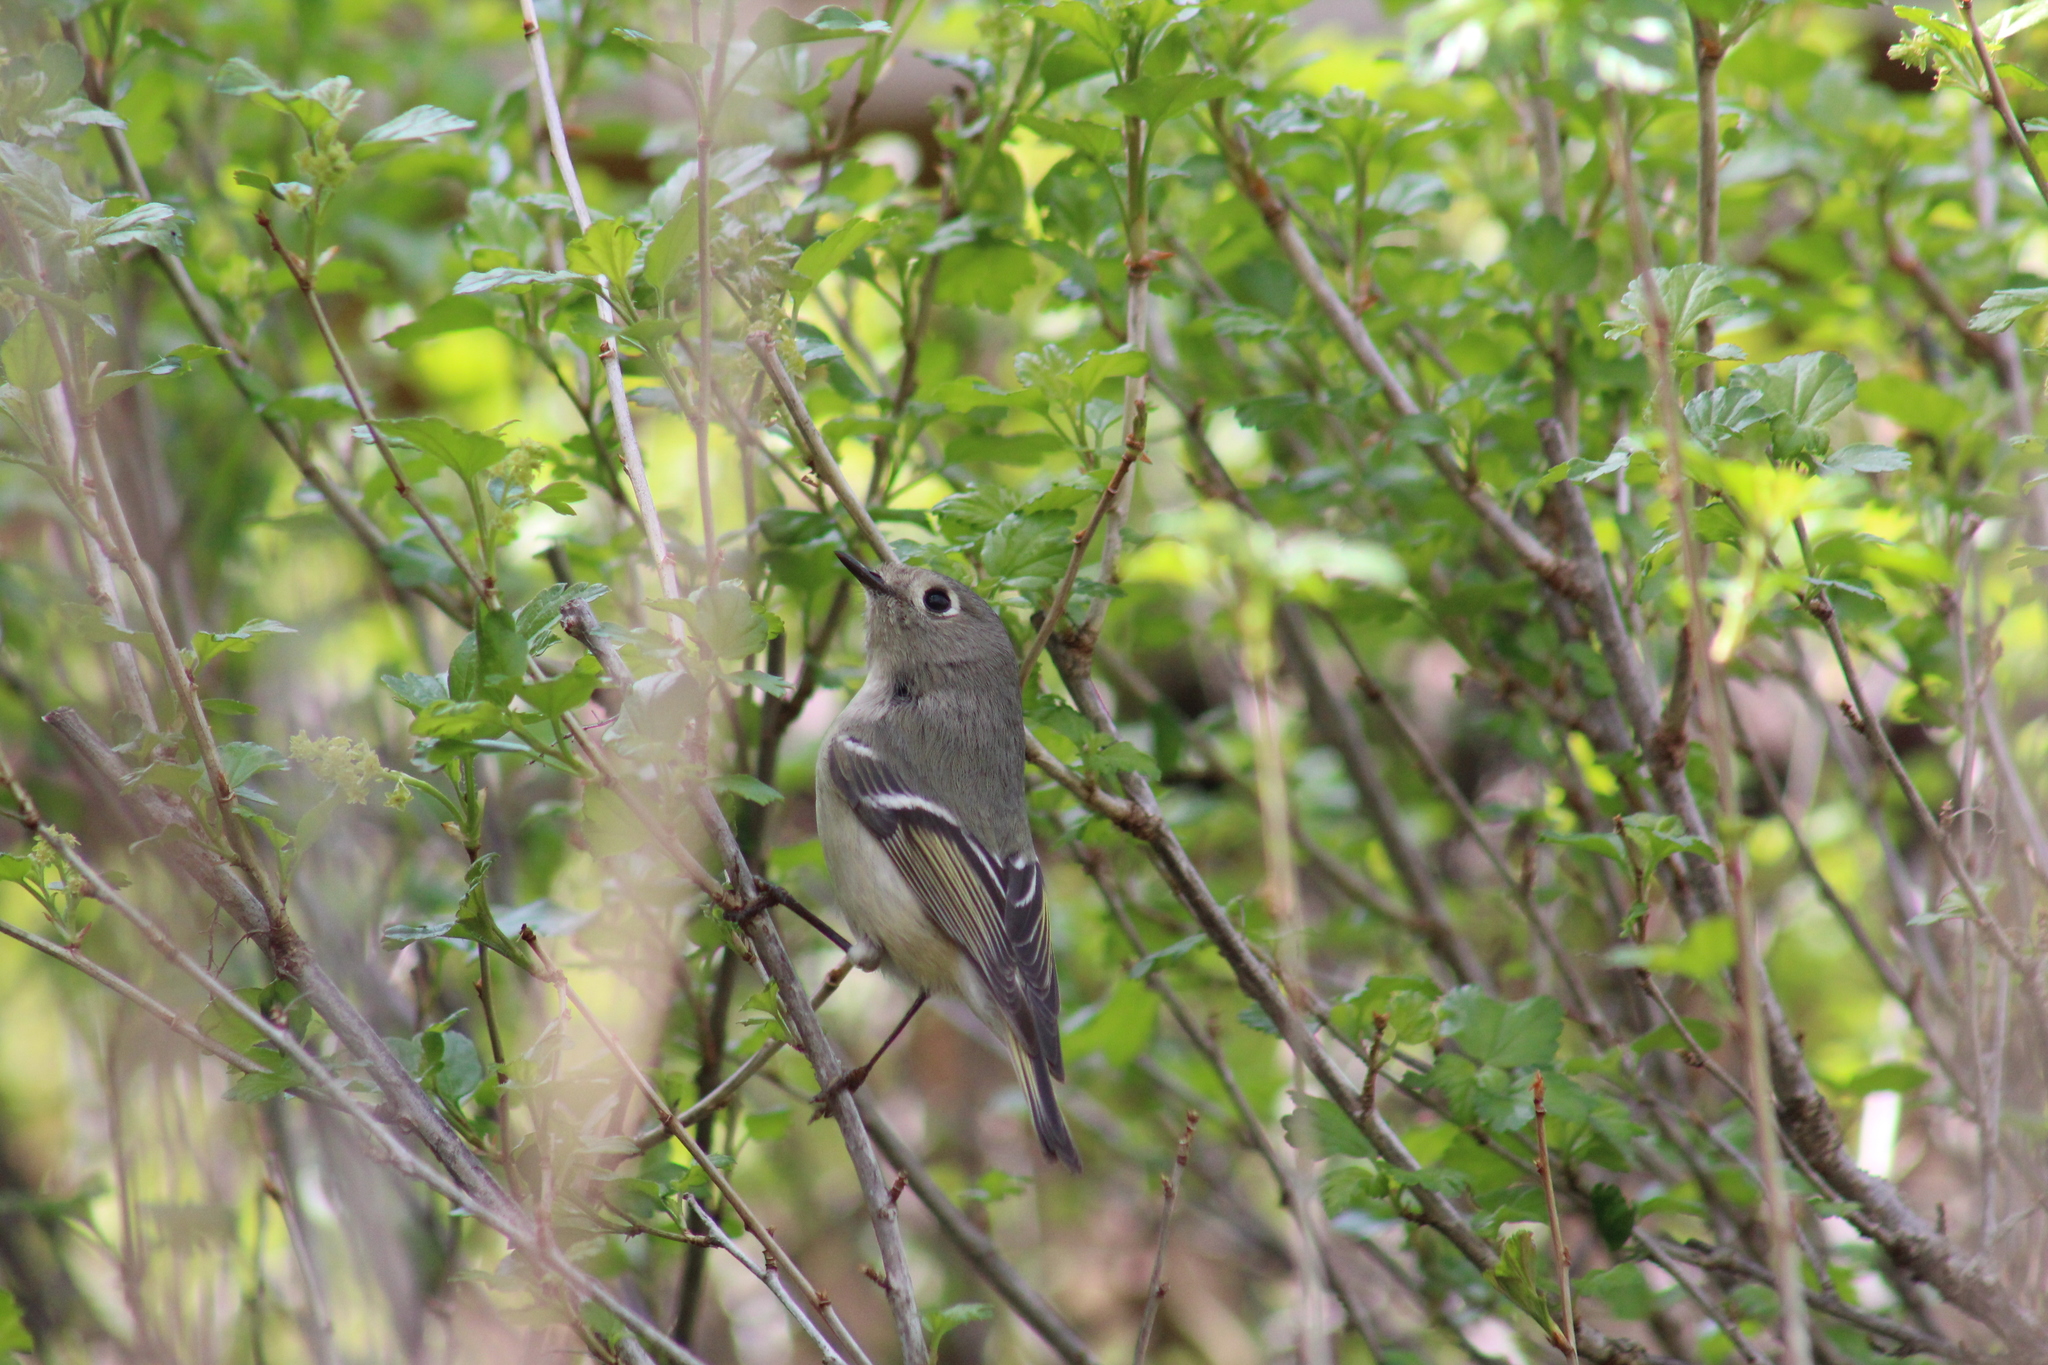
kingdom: Animalia
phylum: Chordata
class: Aves
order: Passeriformes
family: Regulidae
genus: Regulus
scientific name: Regulus calendula
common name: Ruby-crowned kinglet
